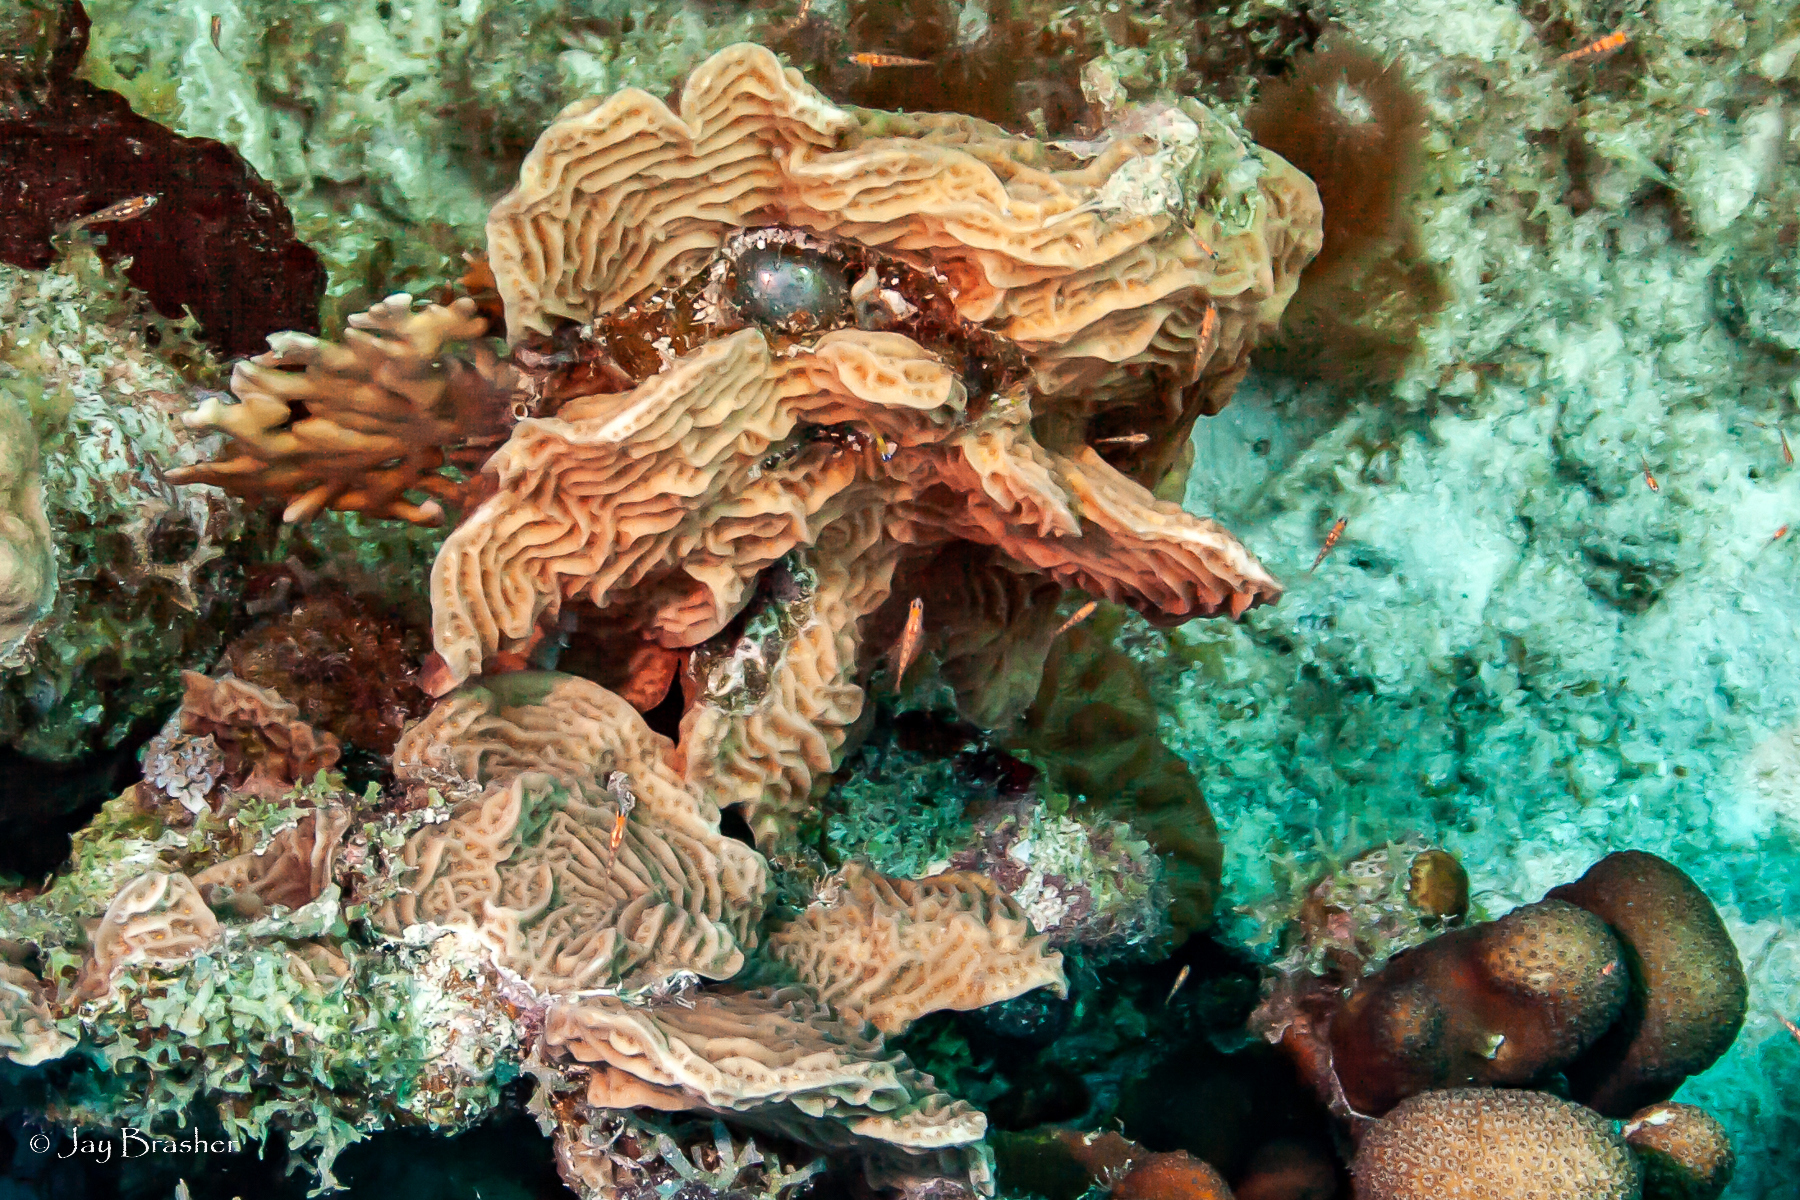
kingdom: Animalia
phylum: Cnidaria
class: Anthozoa
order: Scleractinia
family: Agariciidae
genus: Agaricia
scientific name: Agaricia agaricites
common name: Lettuce coral
